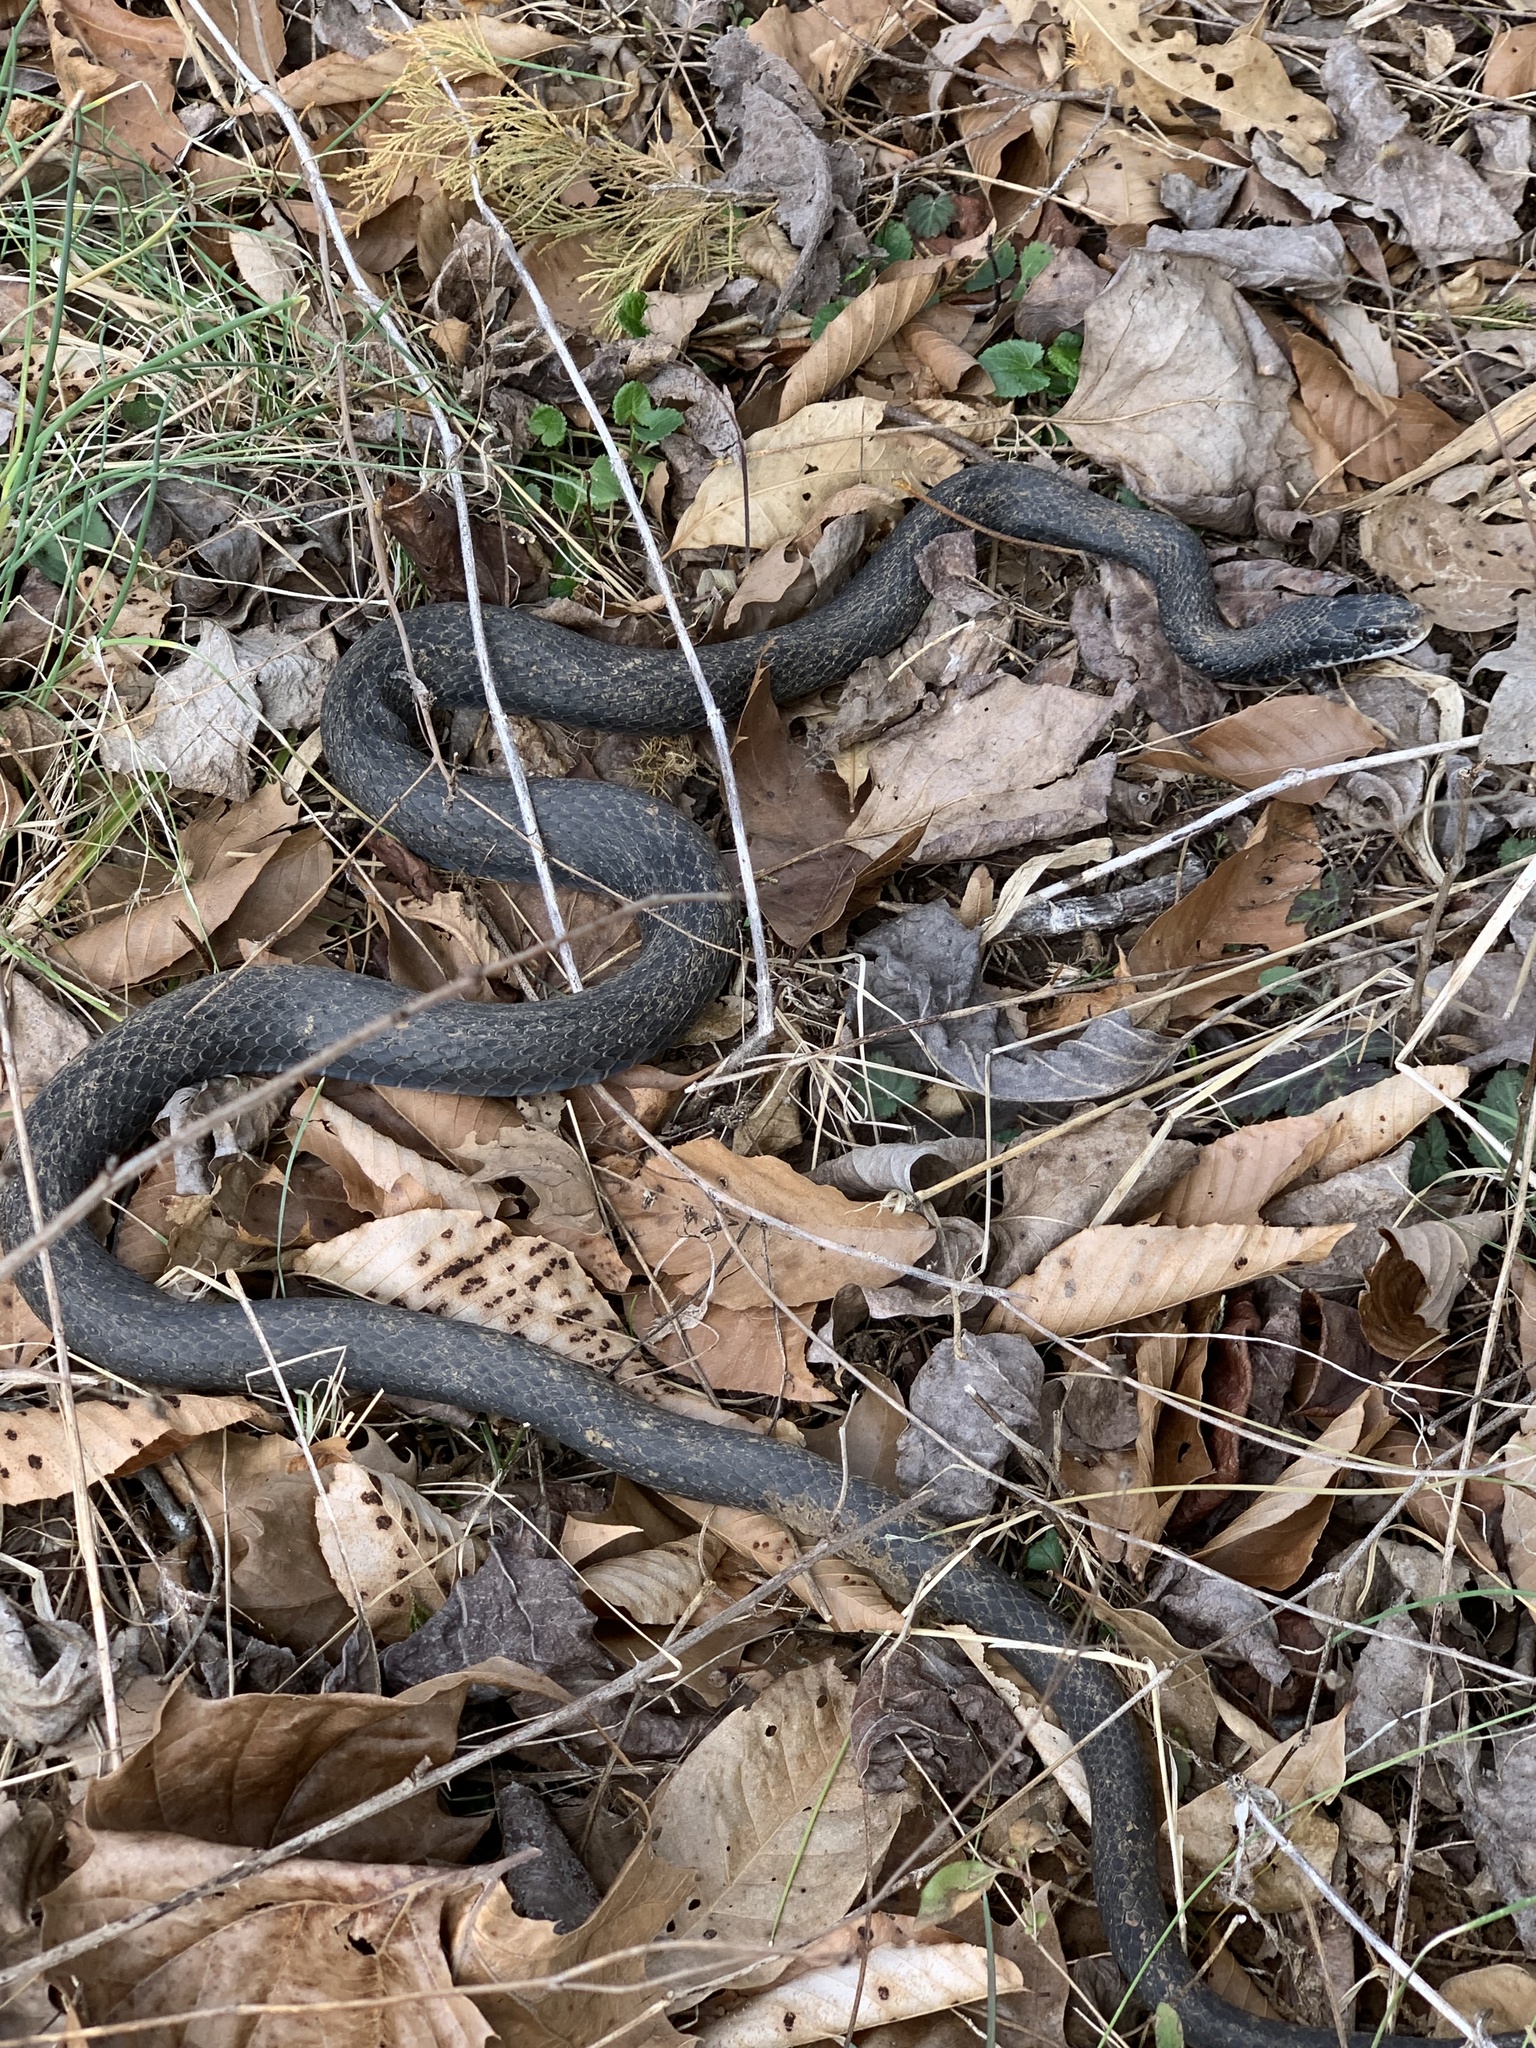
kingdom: Animalia
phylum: Chordata
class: Squamata
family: Colubridae
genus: Coluber
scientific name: Coluber constrictor
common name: Eastern racer
